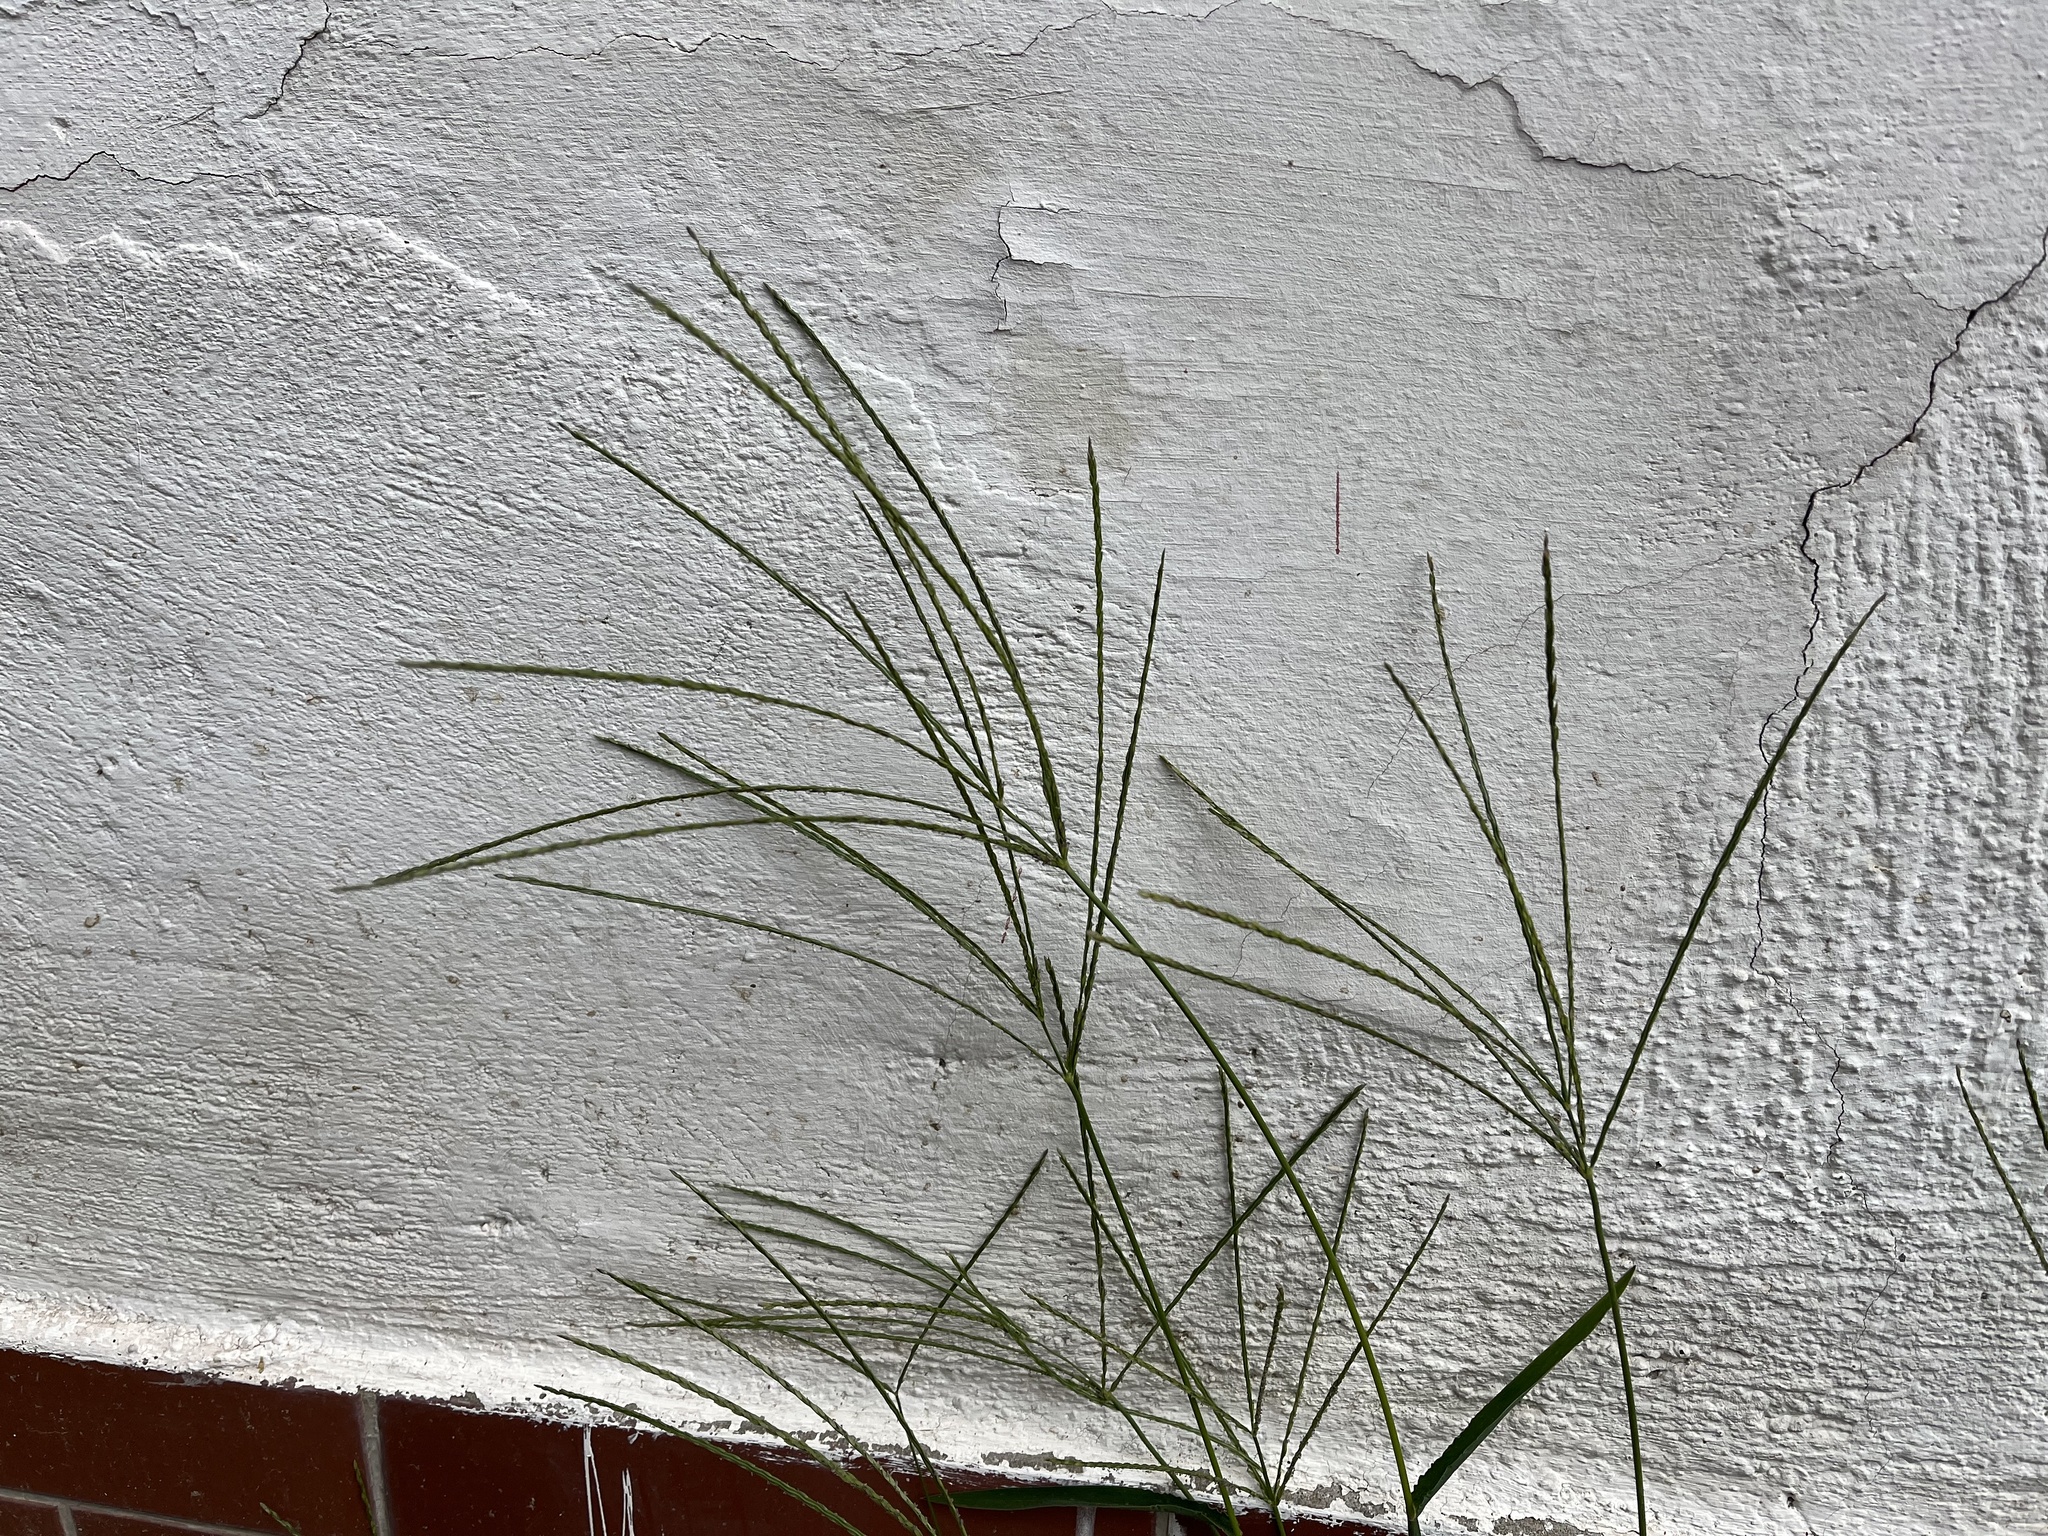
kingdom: Plantae
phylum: Tracheophyta
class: Liliopsida
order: Poales
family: Poaceae
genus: Digitaria
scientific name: Digitaria sanguinalis
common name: Hairy crabgrass
